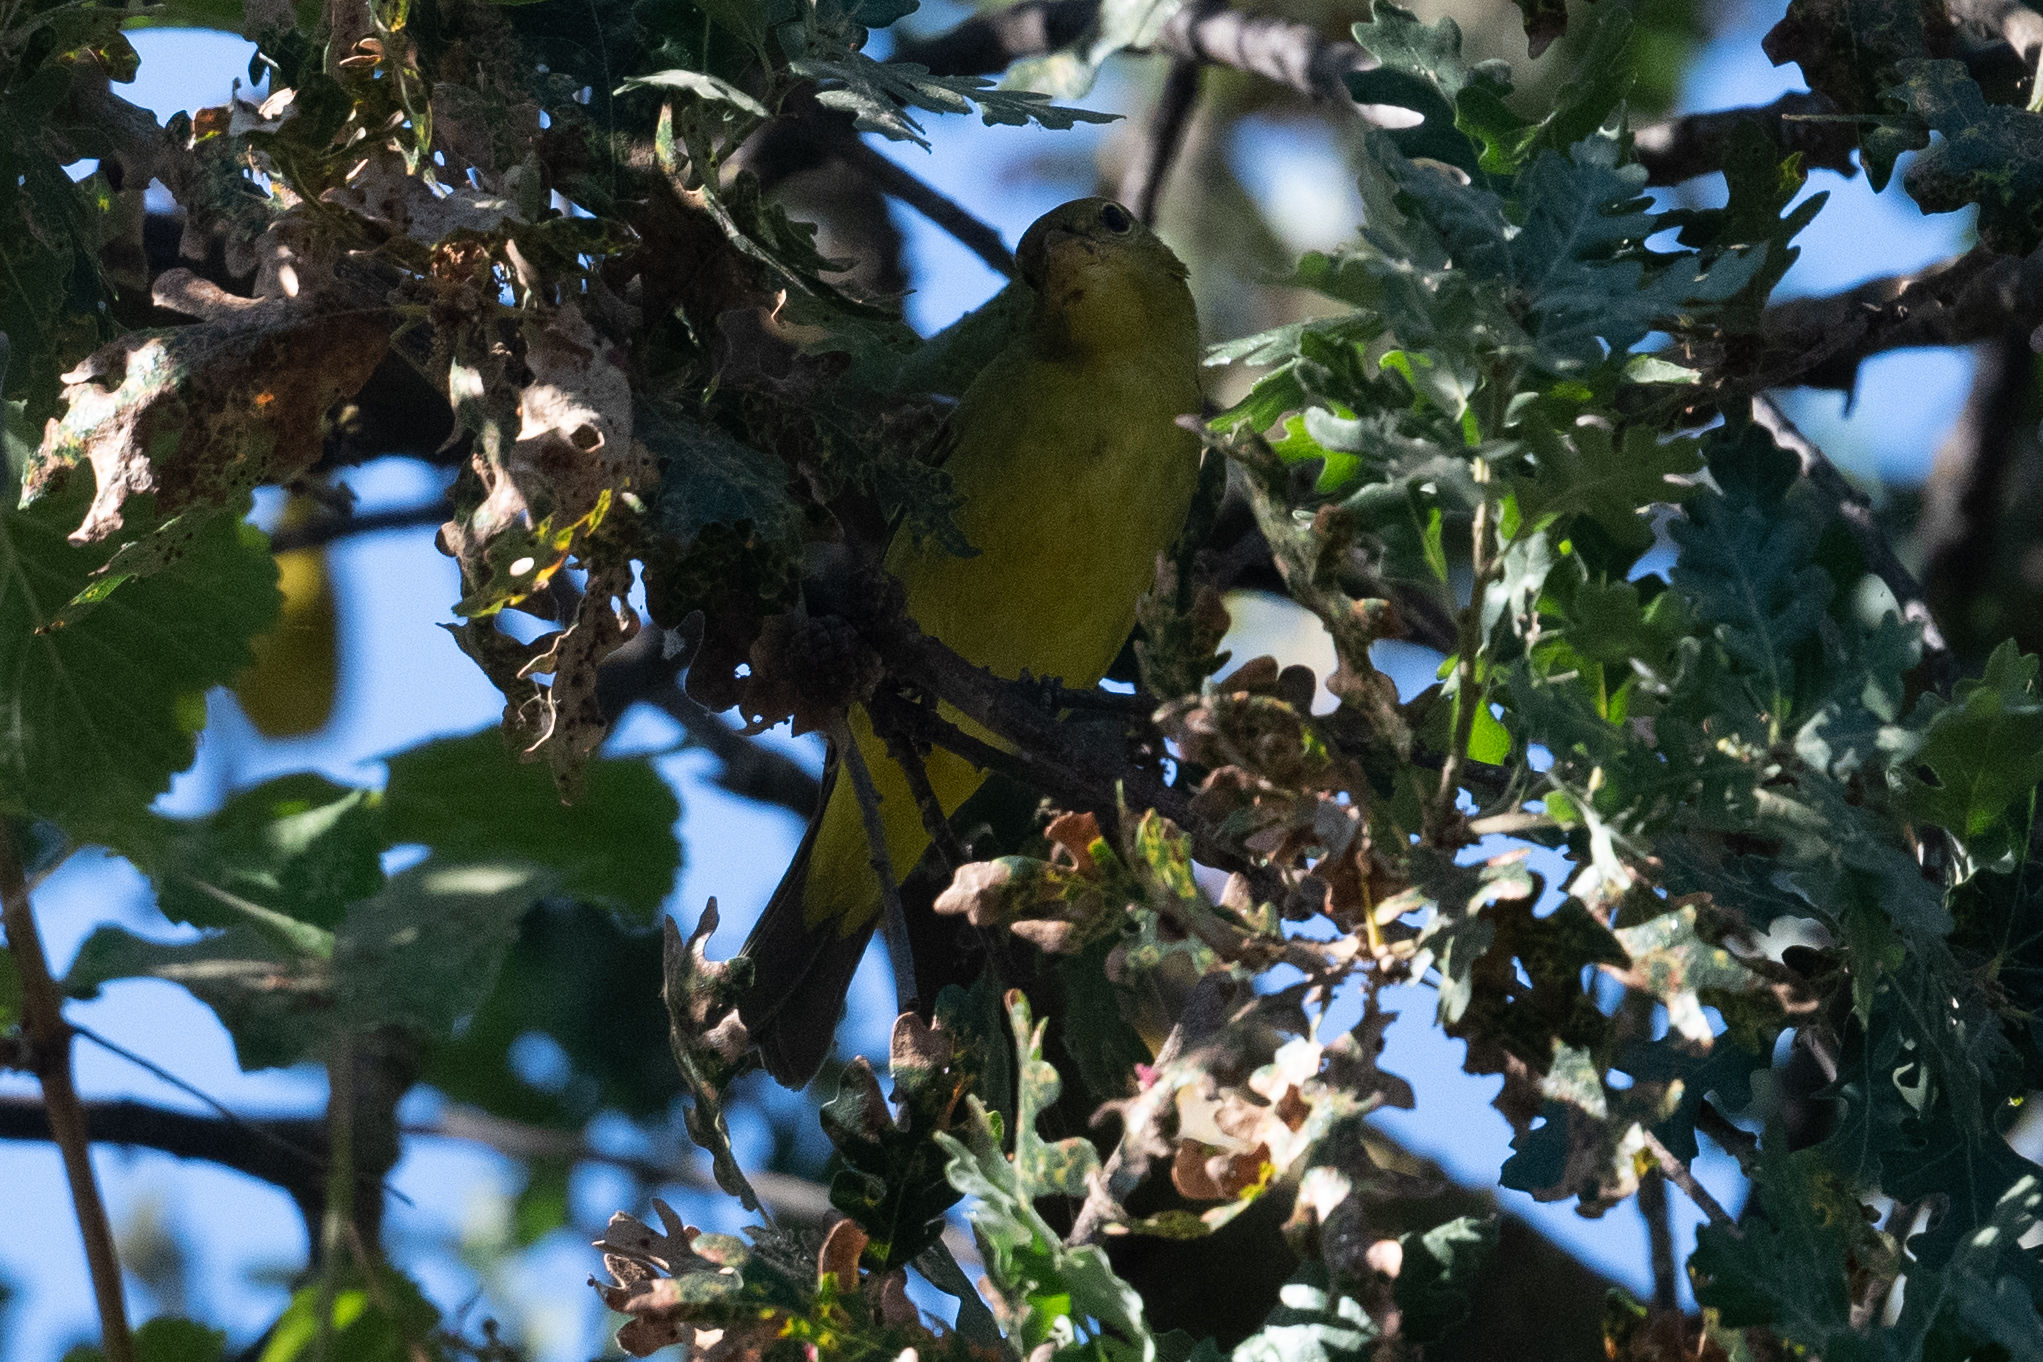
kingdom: Animalia
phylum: Chordata
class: Aves
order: Passeriformes
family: Cardinalidae
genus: Piranga
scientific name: Piranga ludoviciana
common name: Western tanager
